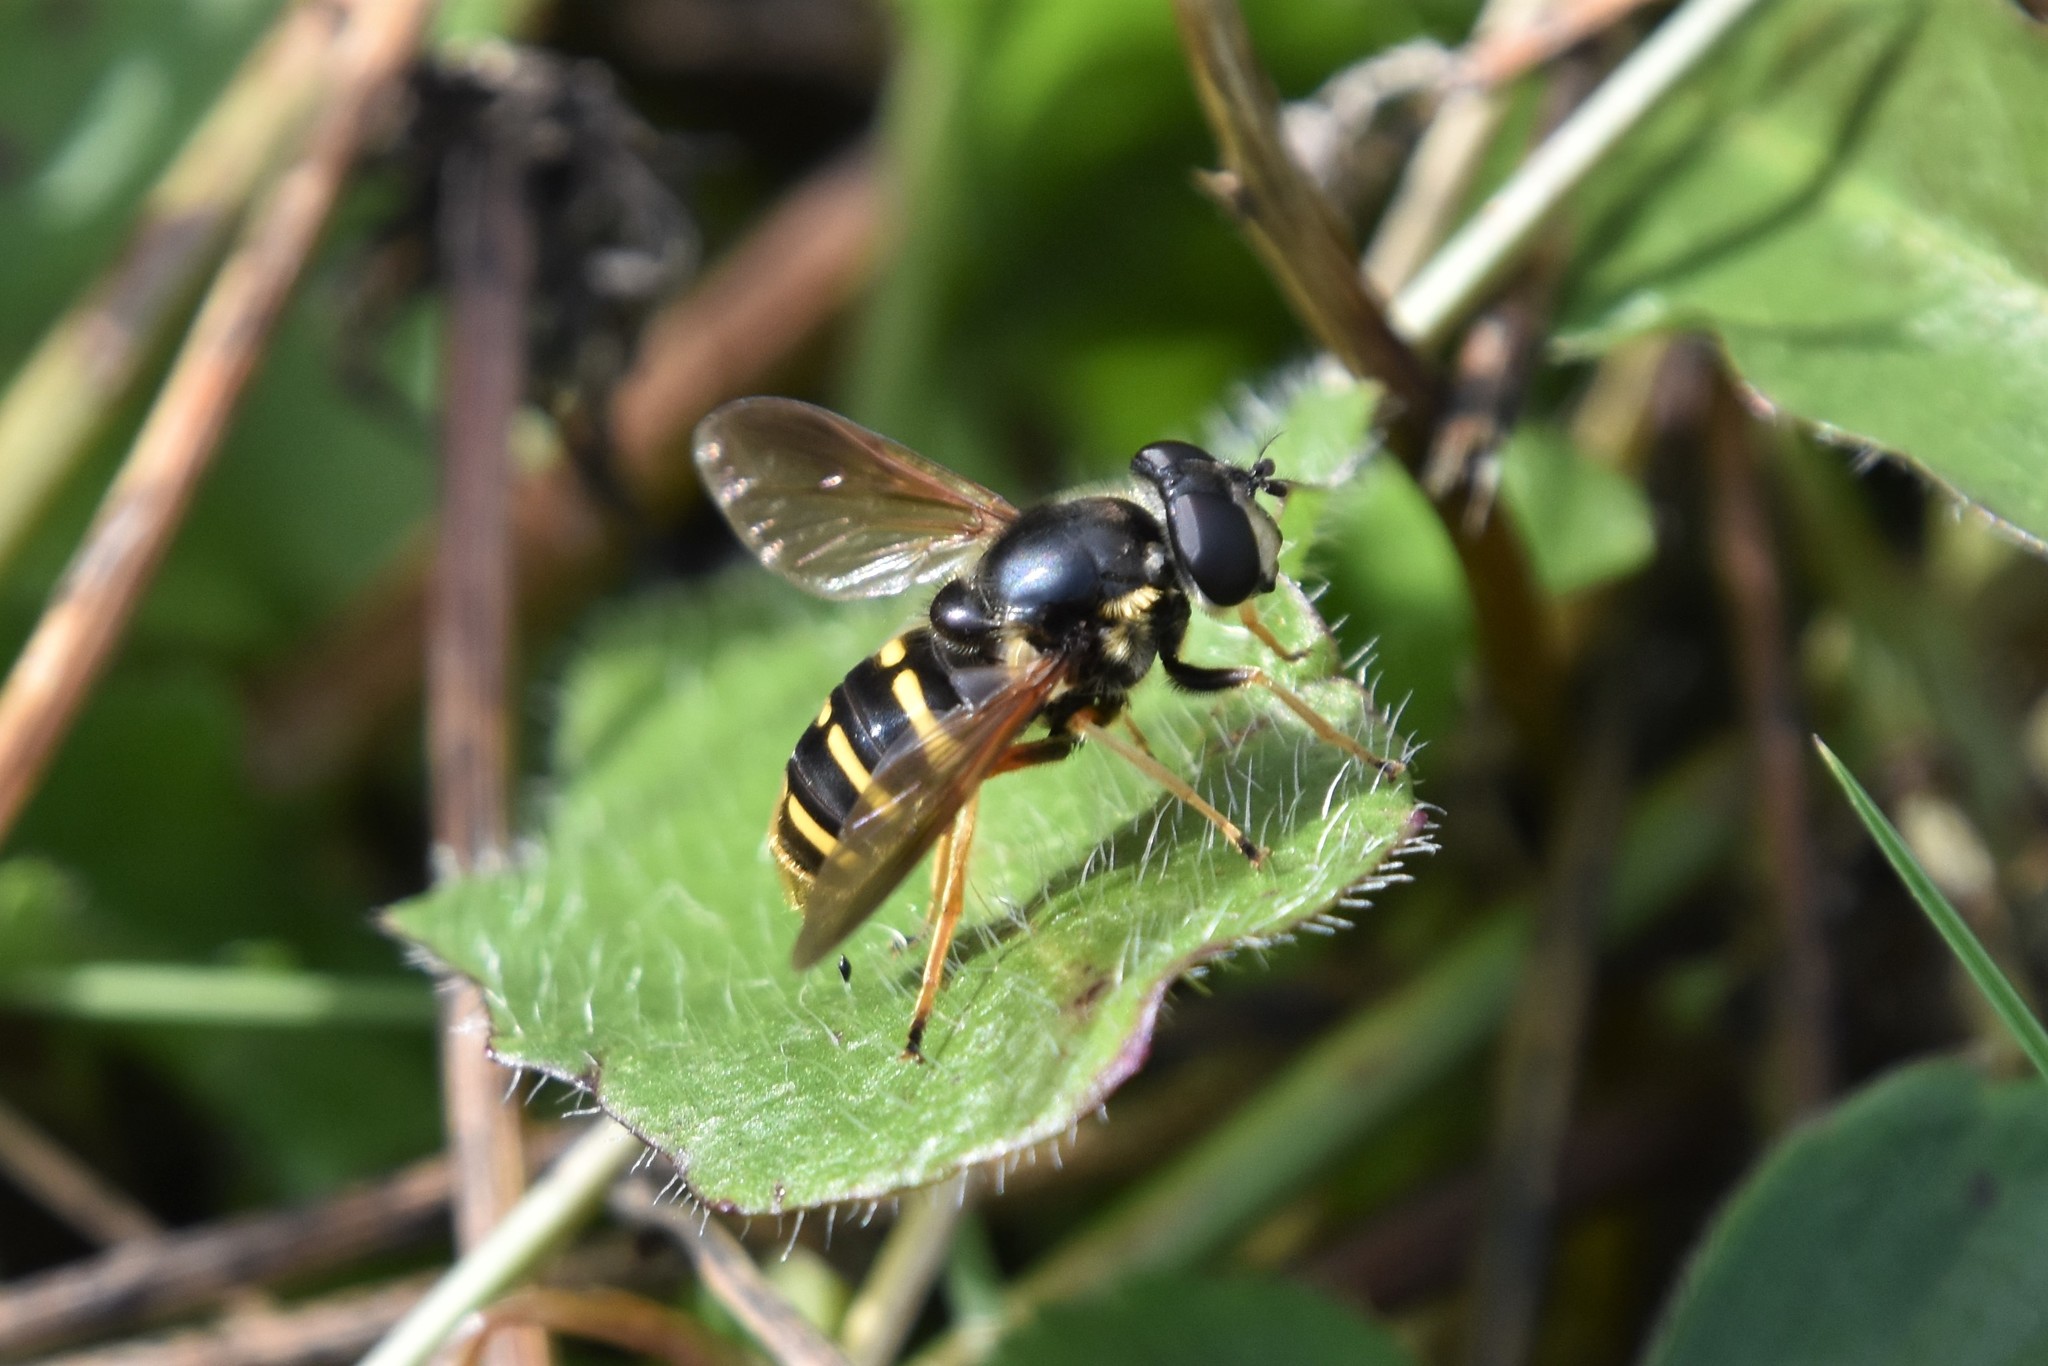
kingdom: Animalia
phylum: Arthropoda
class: Insecta
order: Diptera
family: Syrphidae
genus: Sericomyia
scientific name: Sericomyia chalcopyga
